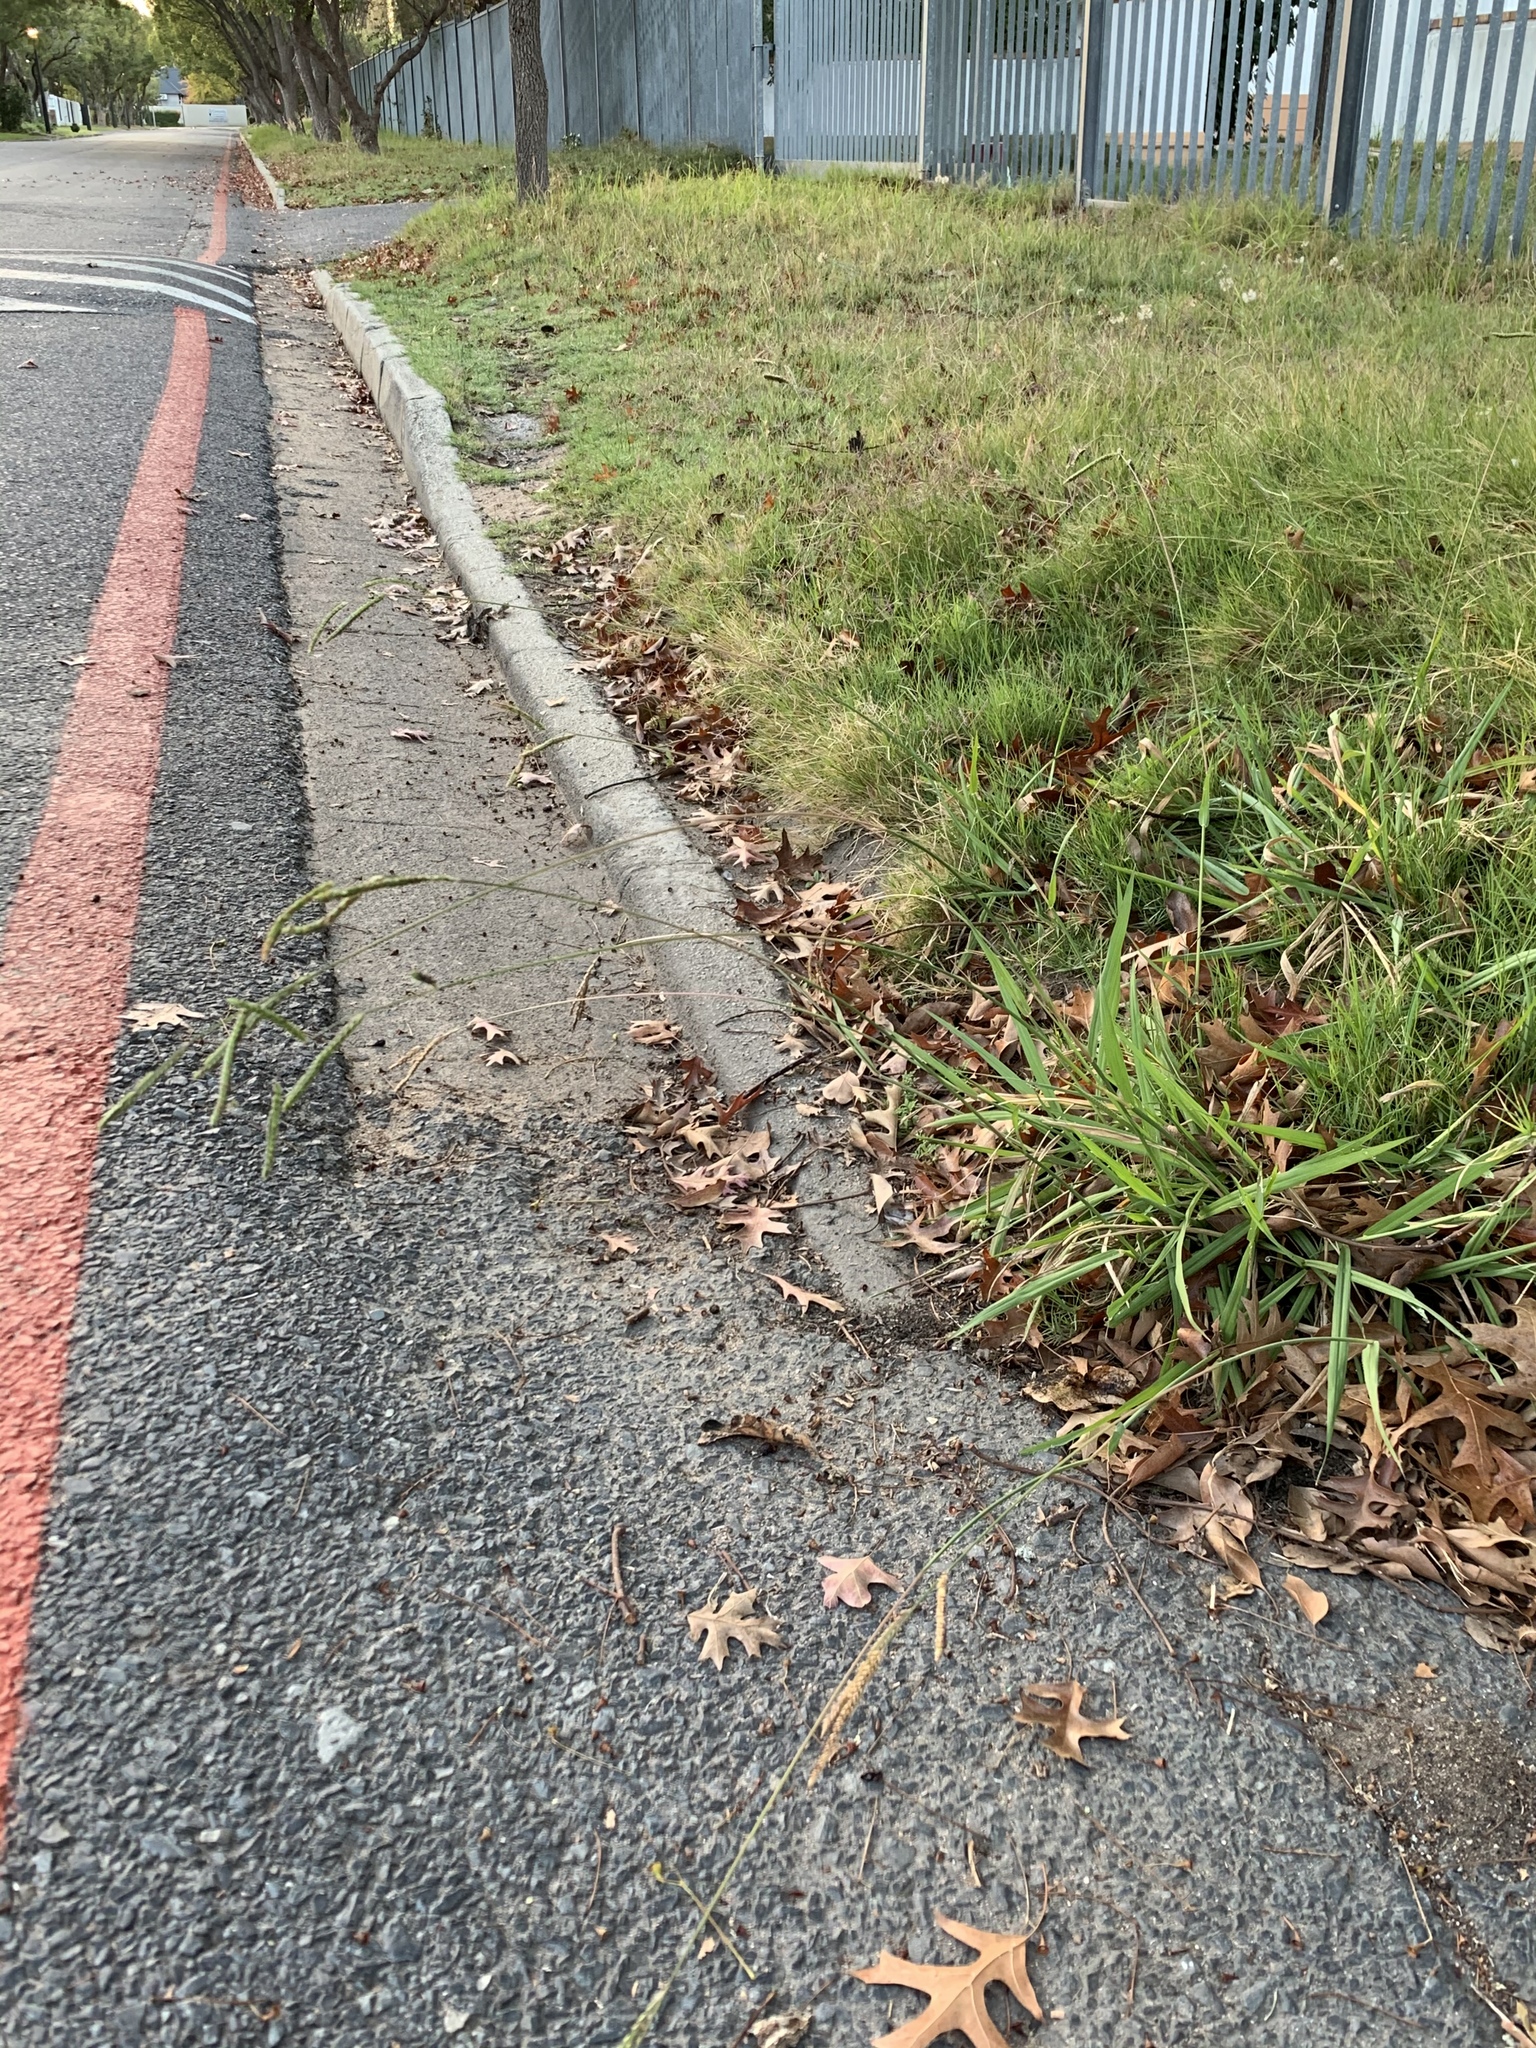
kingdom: Plantae
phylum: Tracheophyta
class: Liliopsida
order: Poales
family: Poaceae
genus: Paspalum
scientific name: Paspalum dilatatum
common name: Dallisgrass
